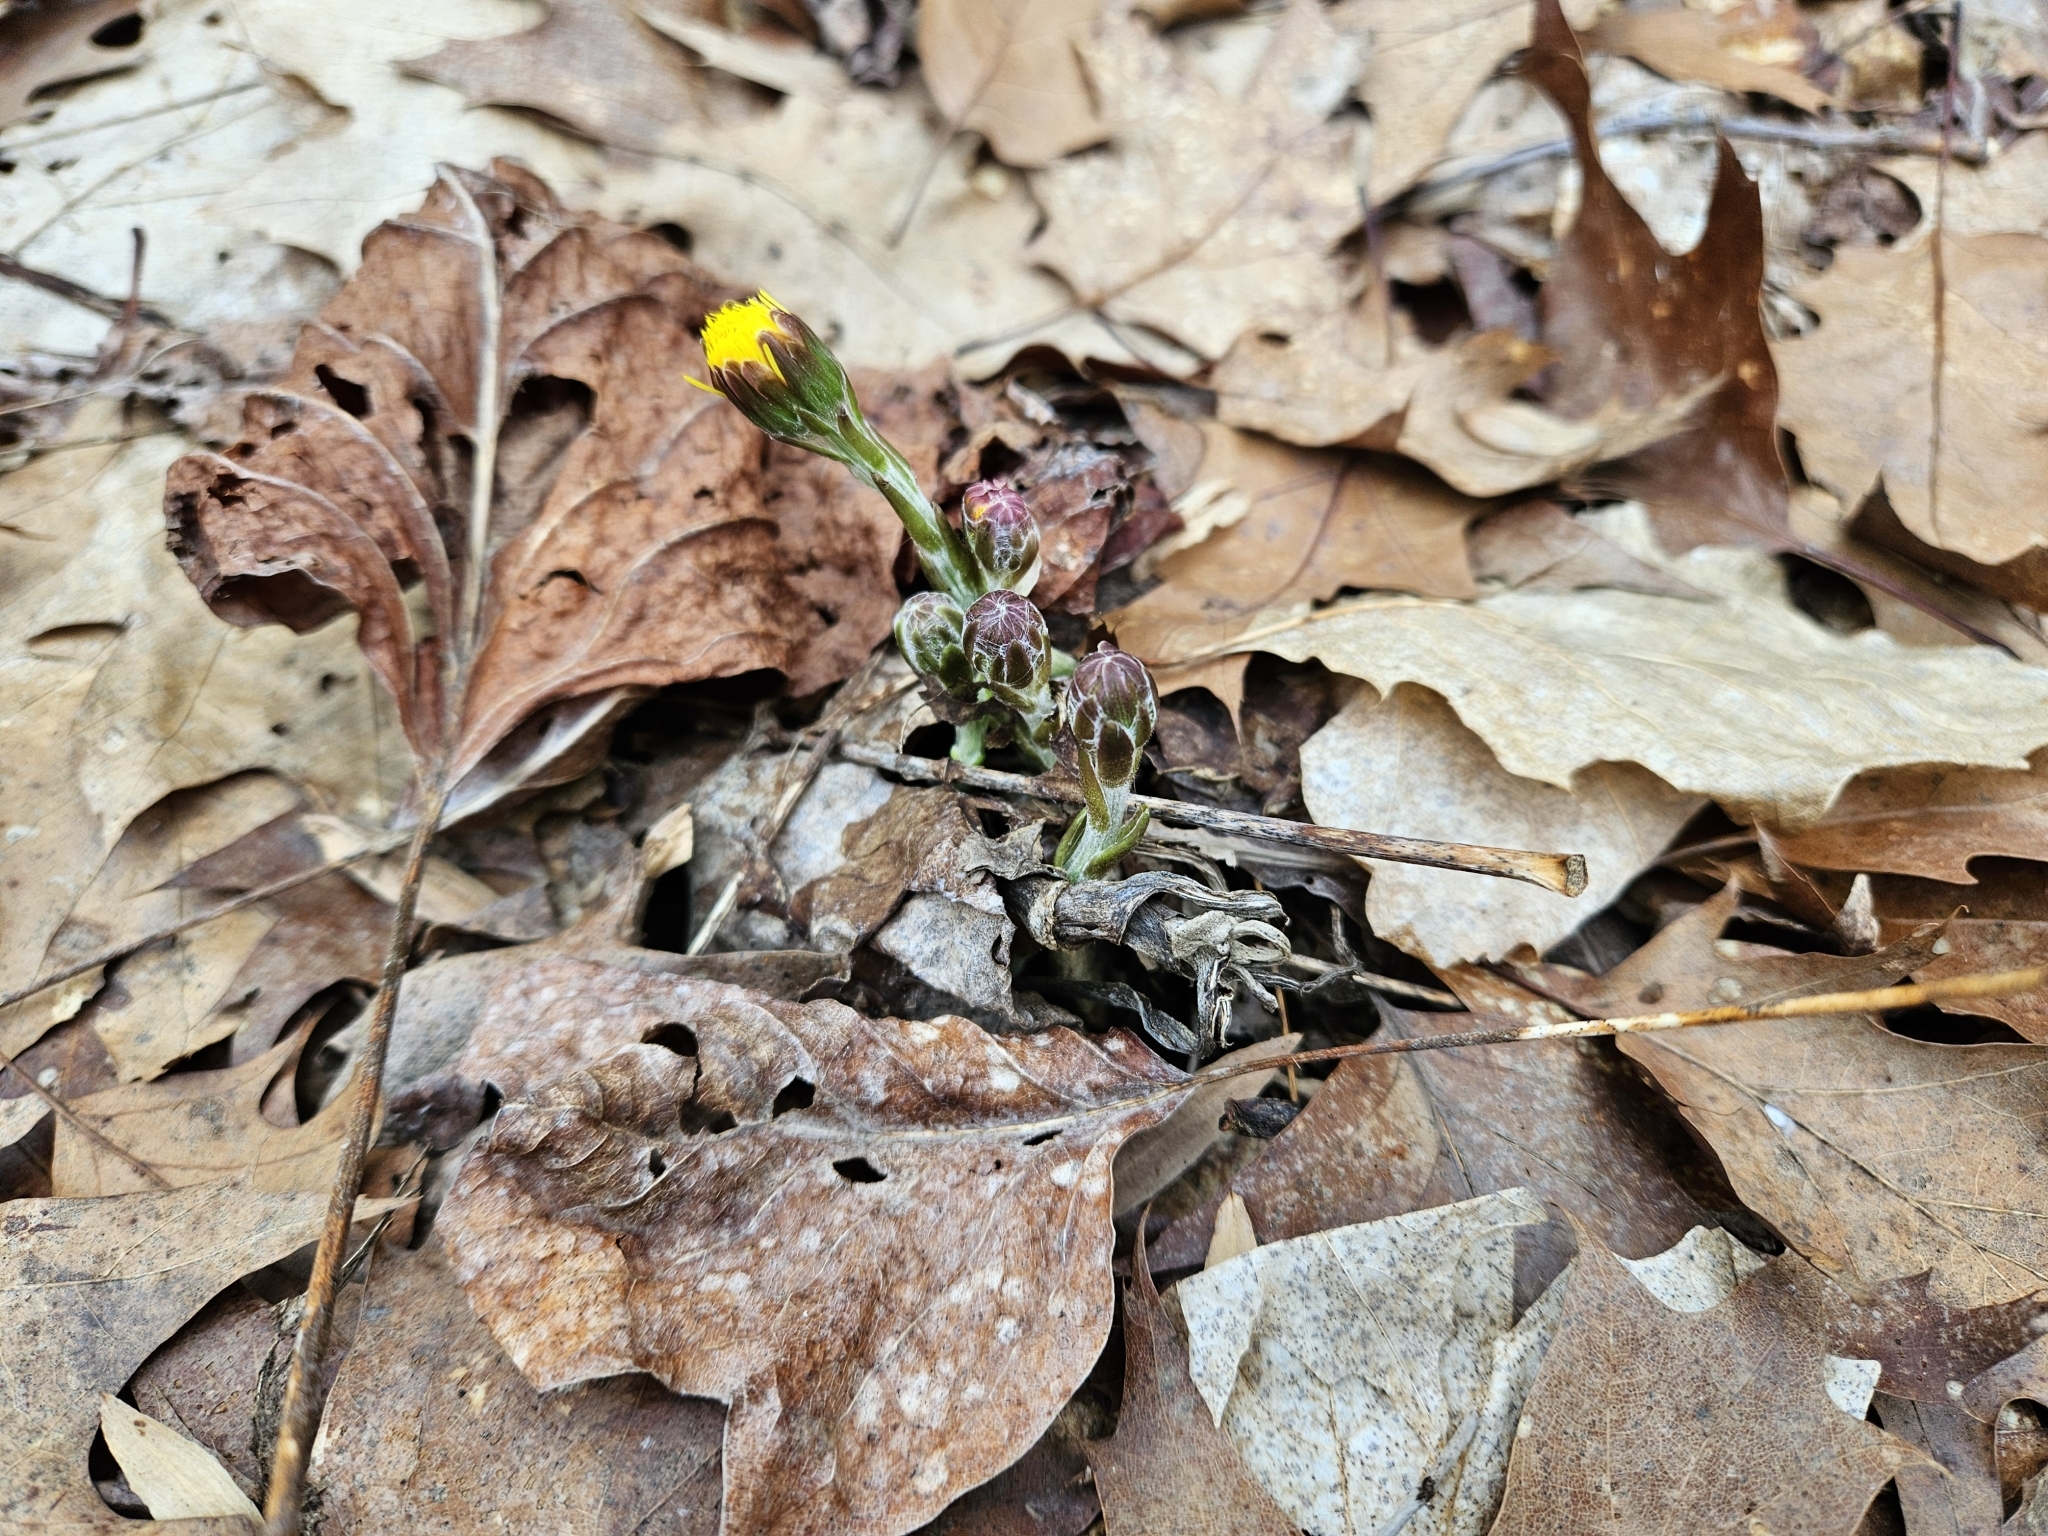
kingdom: Plantae
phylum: Tracheophyta
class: Magnoliopsida
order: Asterales
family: Asteraceae
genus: Tussilago
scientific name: Tussilago farfara
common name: Coltsfoot
